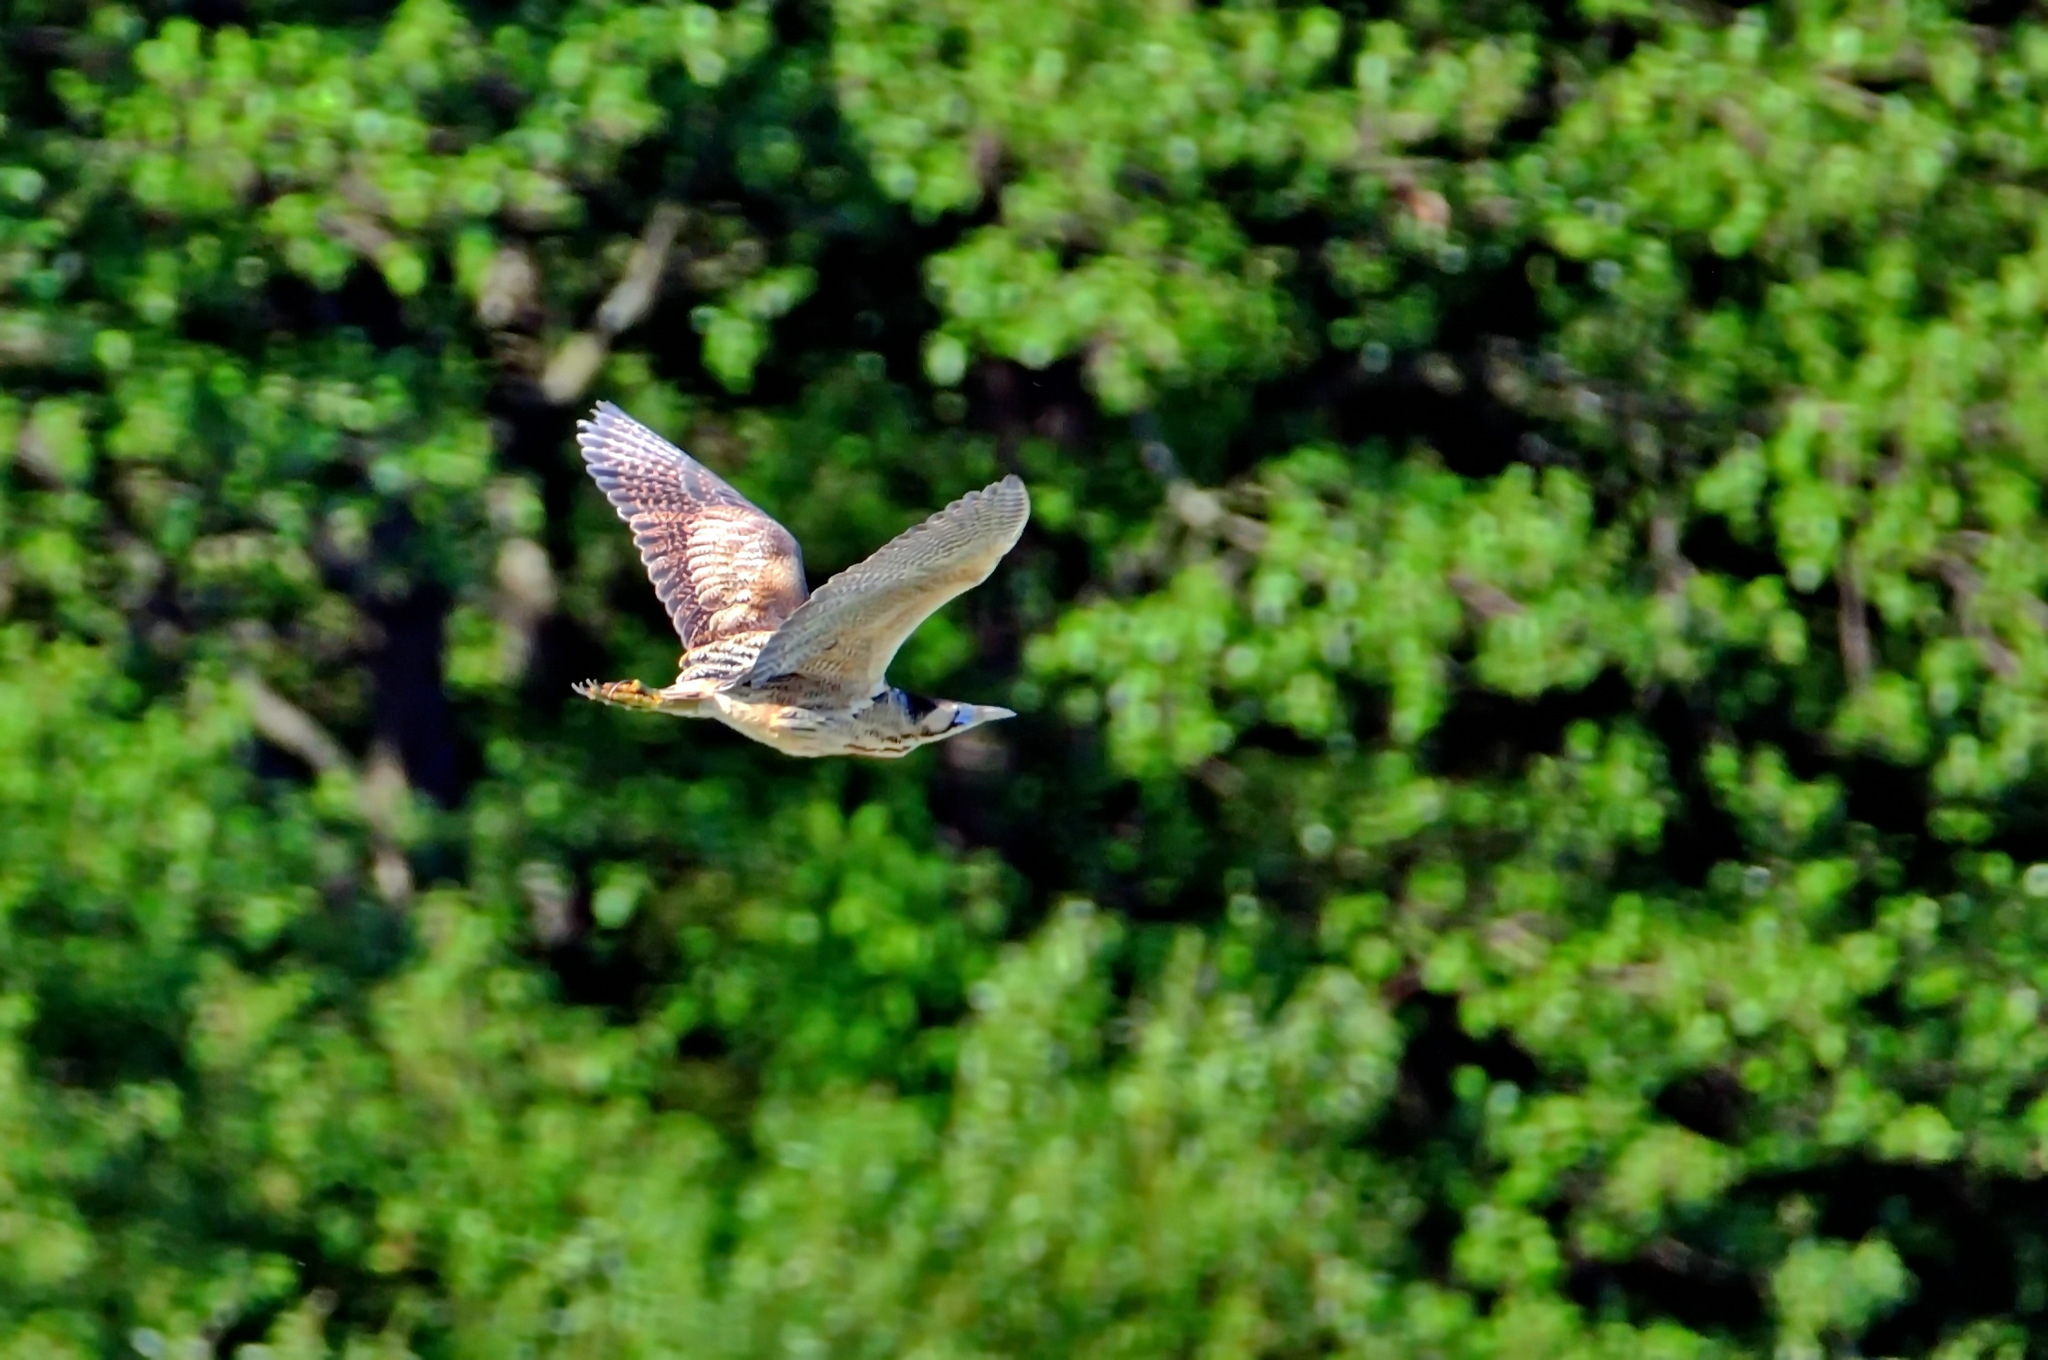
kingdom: Animalia
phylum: Chordata
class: Aves
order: Pelecaniformes
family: Ardeidae
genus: Botaurus
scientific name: Botaurus stellaris
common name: Eurasian bittern
